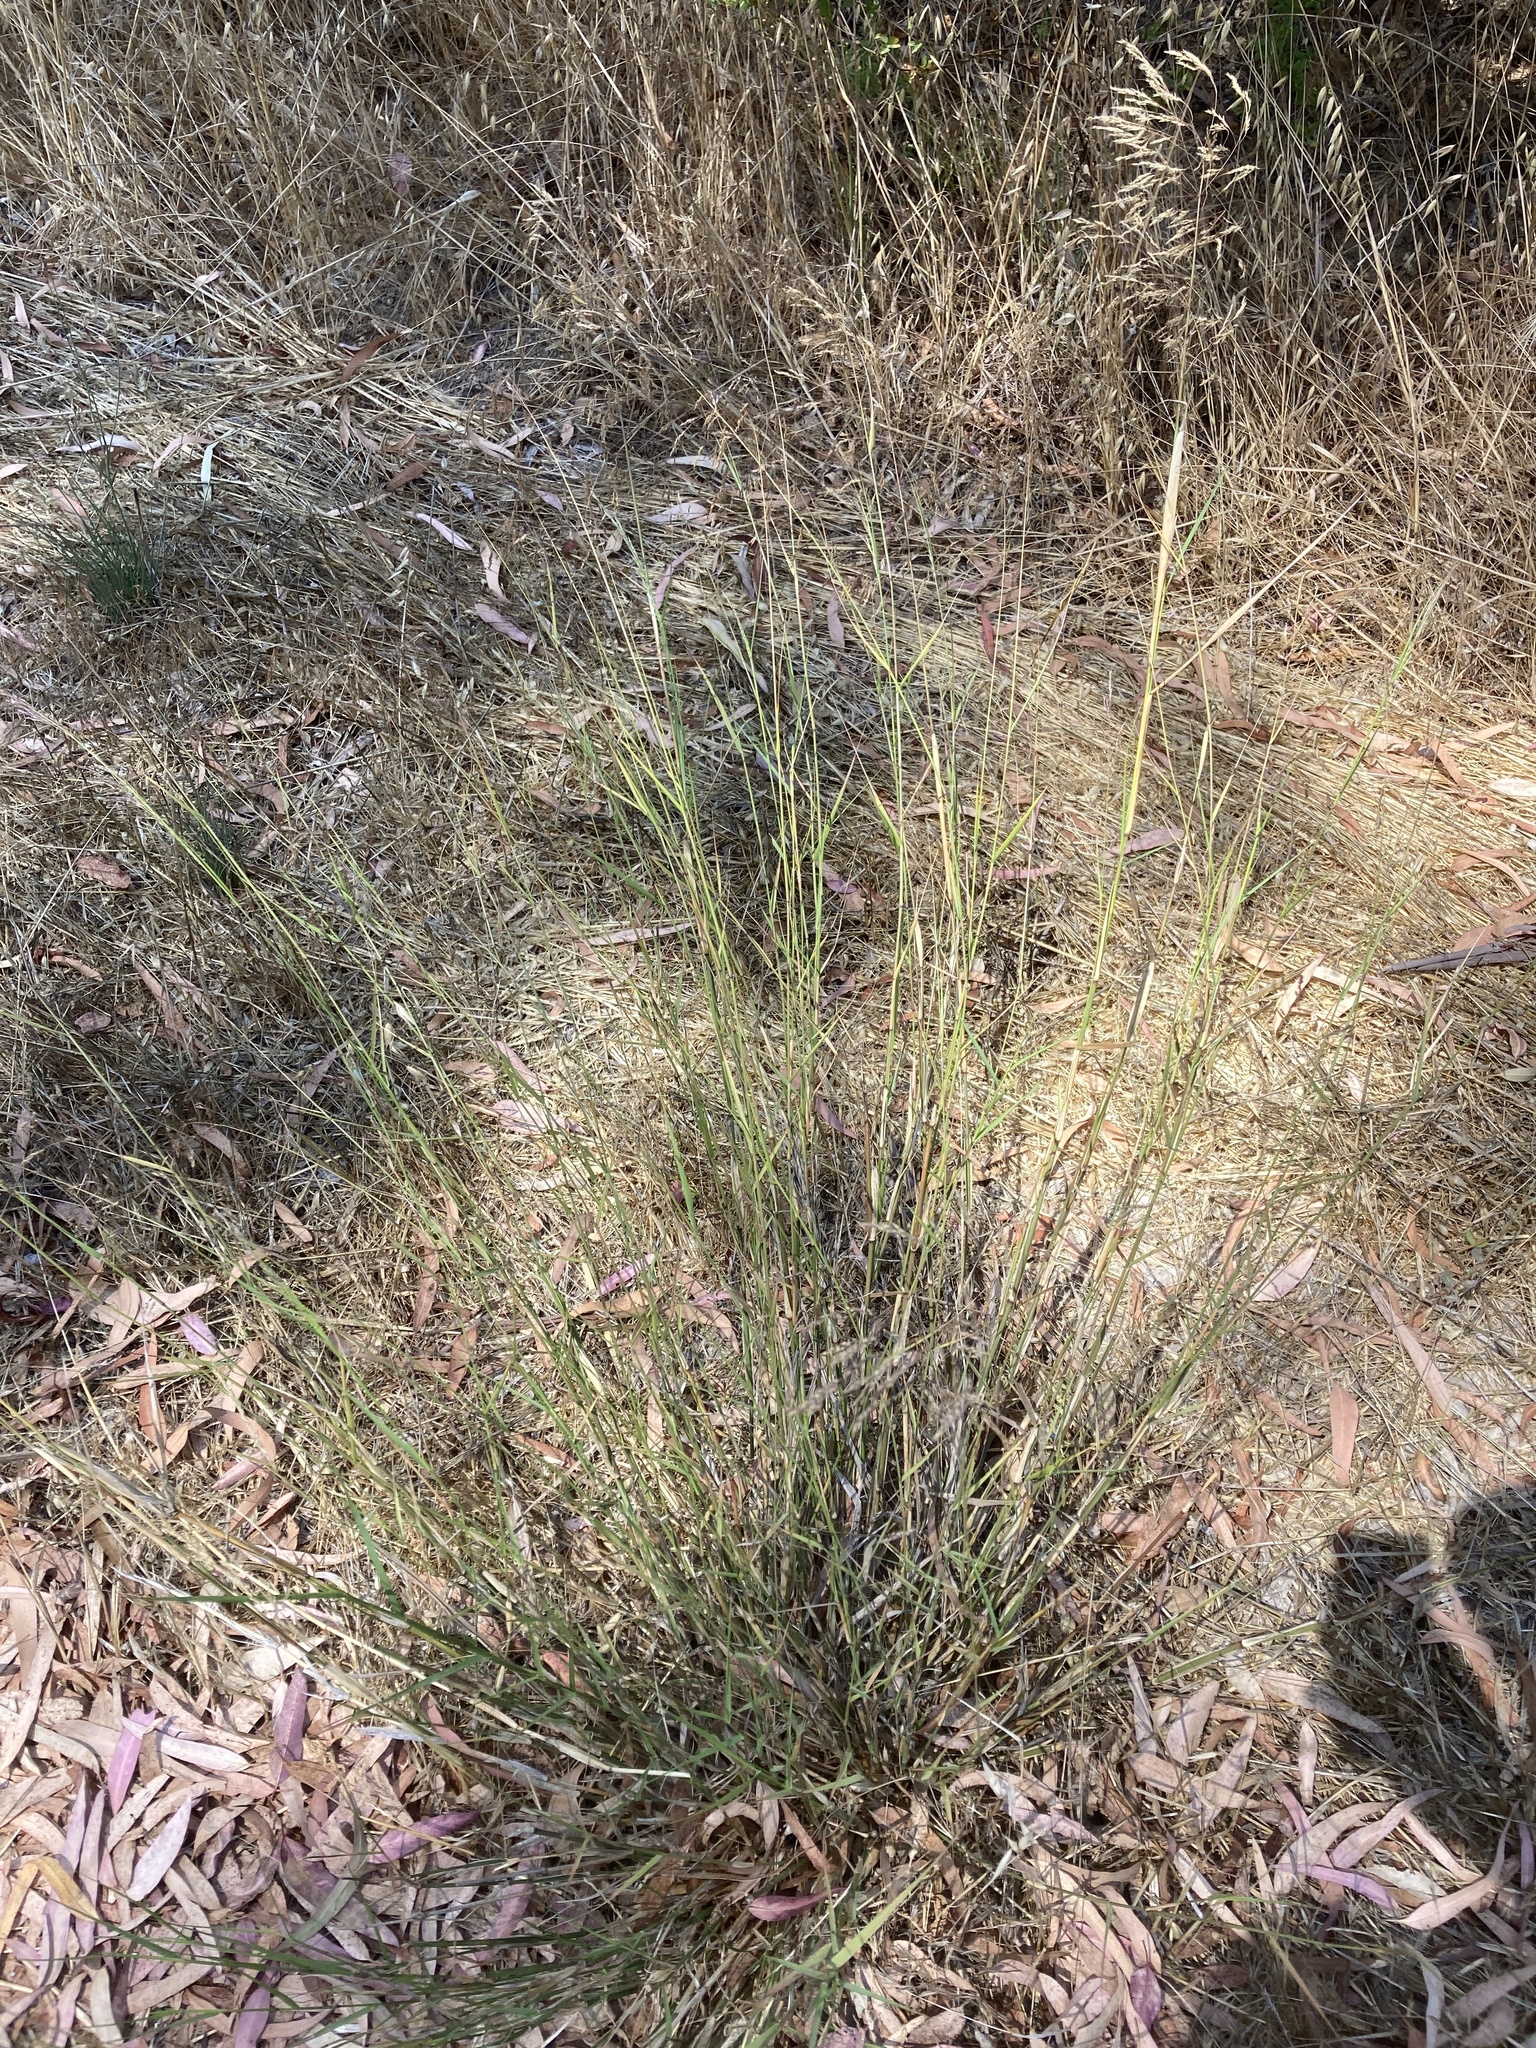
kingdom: Plantae
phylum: Tracheophyta
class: Liliopsida
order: Poales
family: Poaceae
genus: Oloptum
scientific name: Oloptum miliaceum
